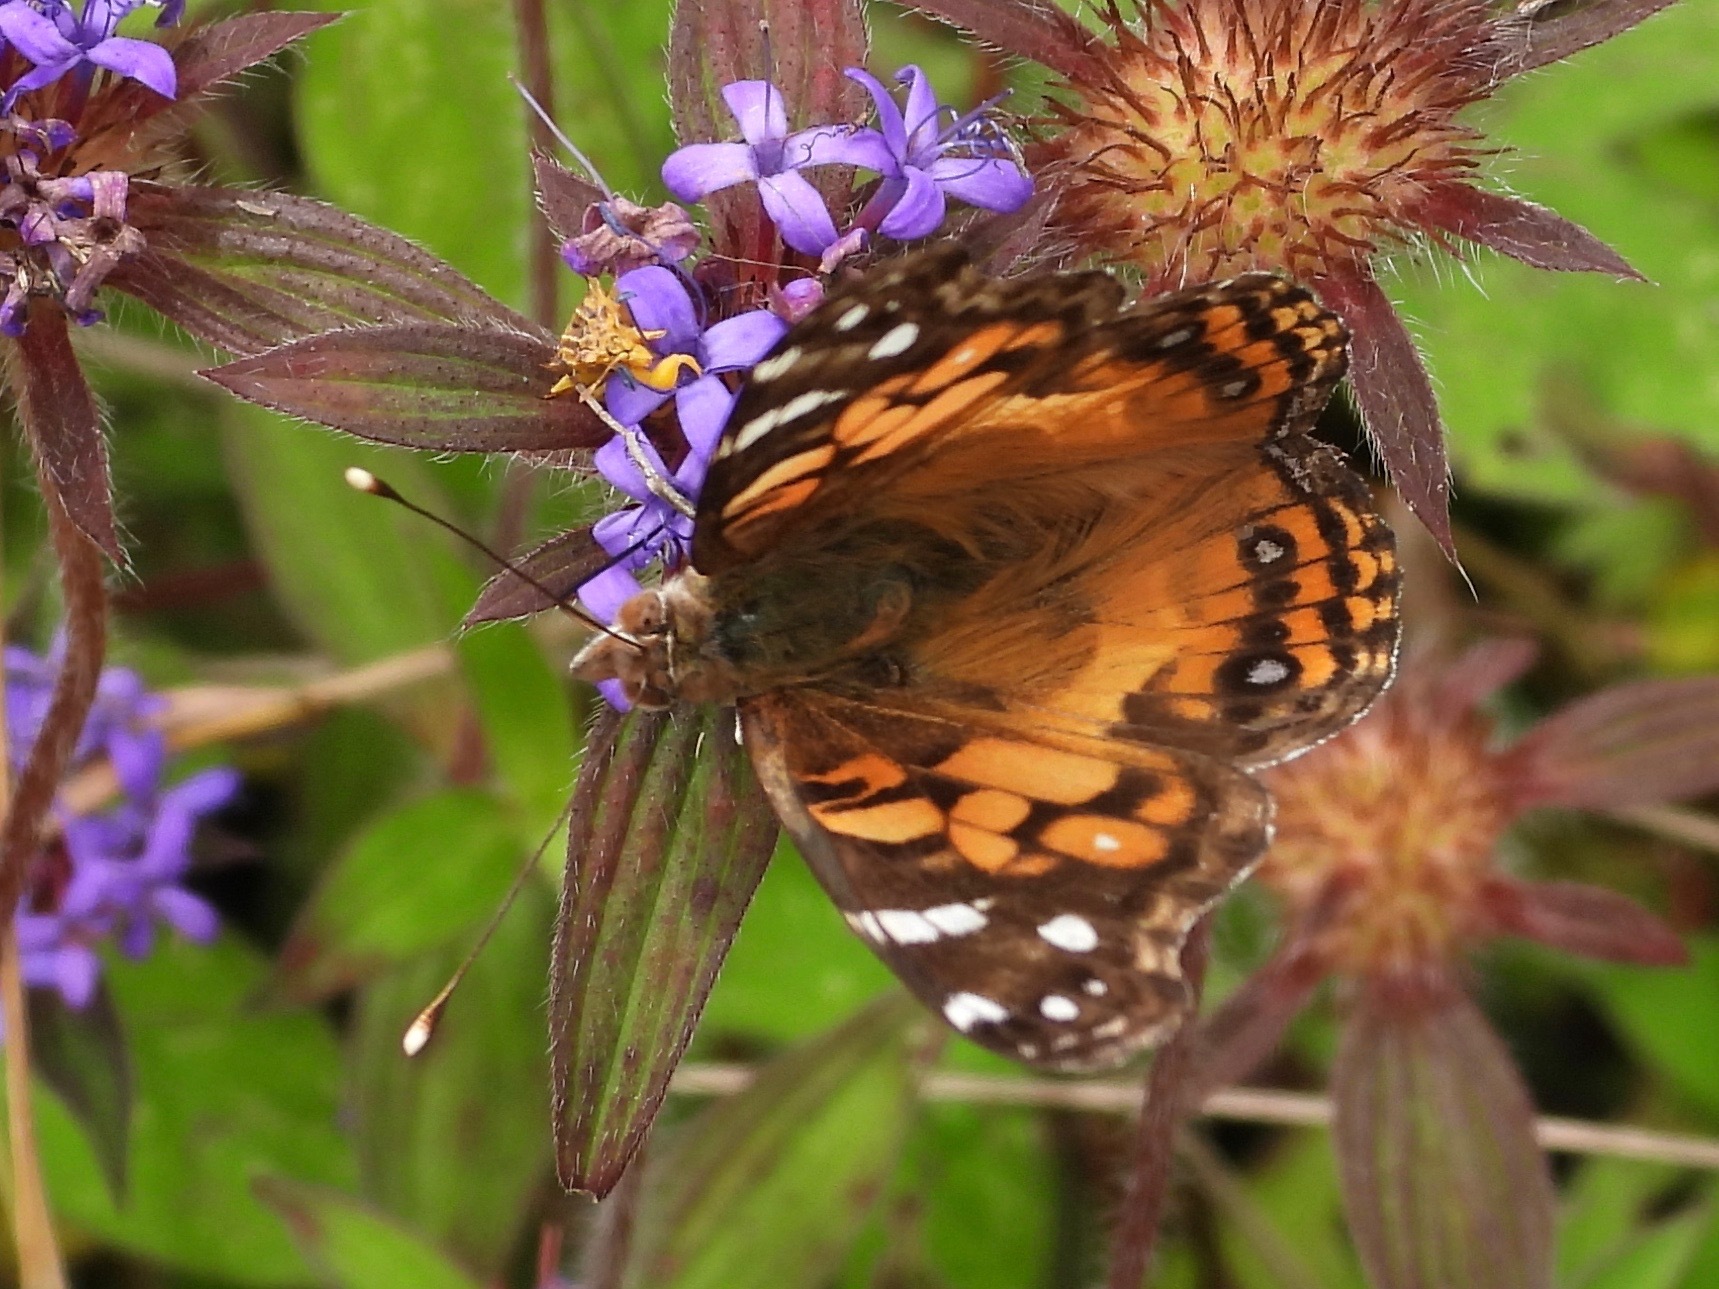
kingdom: Animalia
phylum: Arthropoda
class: Insecta
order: Lepidoptera
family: Nymphalidae
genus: Vanessa
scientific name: Vanessa virginiensis
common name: American lady
